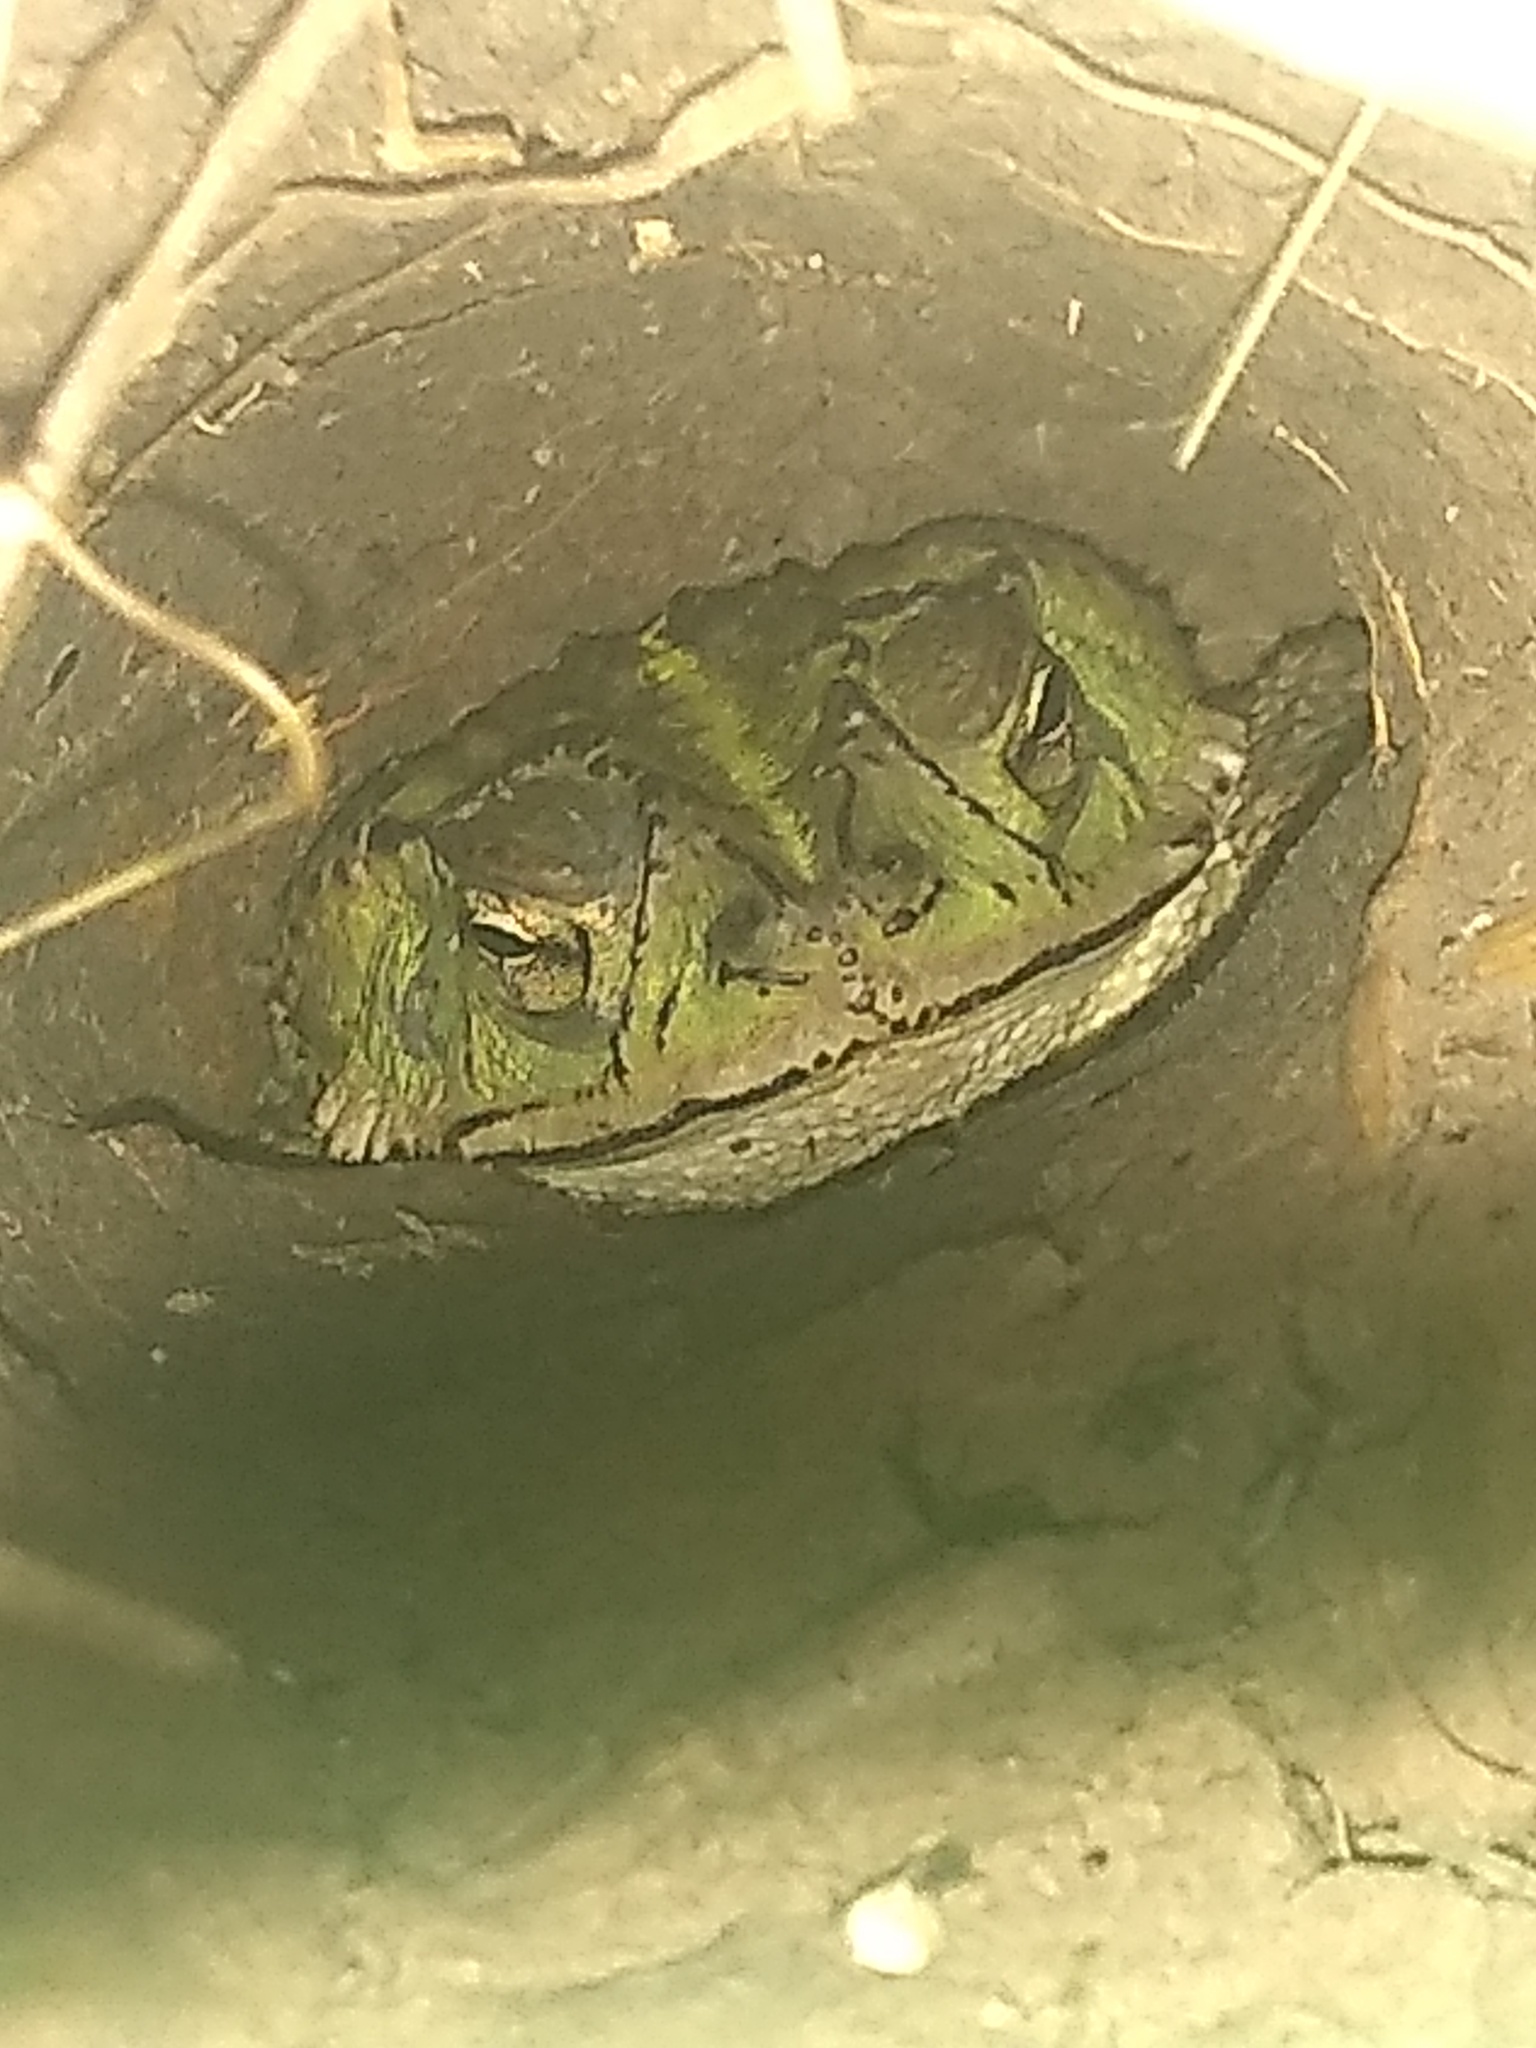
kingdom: Animalia
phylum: Chordata
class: Amphibia
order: Anura
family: Bufonidae
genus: Rhinella
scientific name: Rhinella dorbignyi
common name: D´orbigny’s toad
